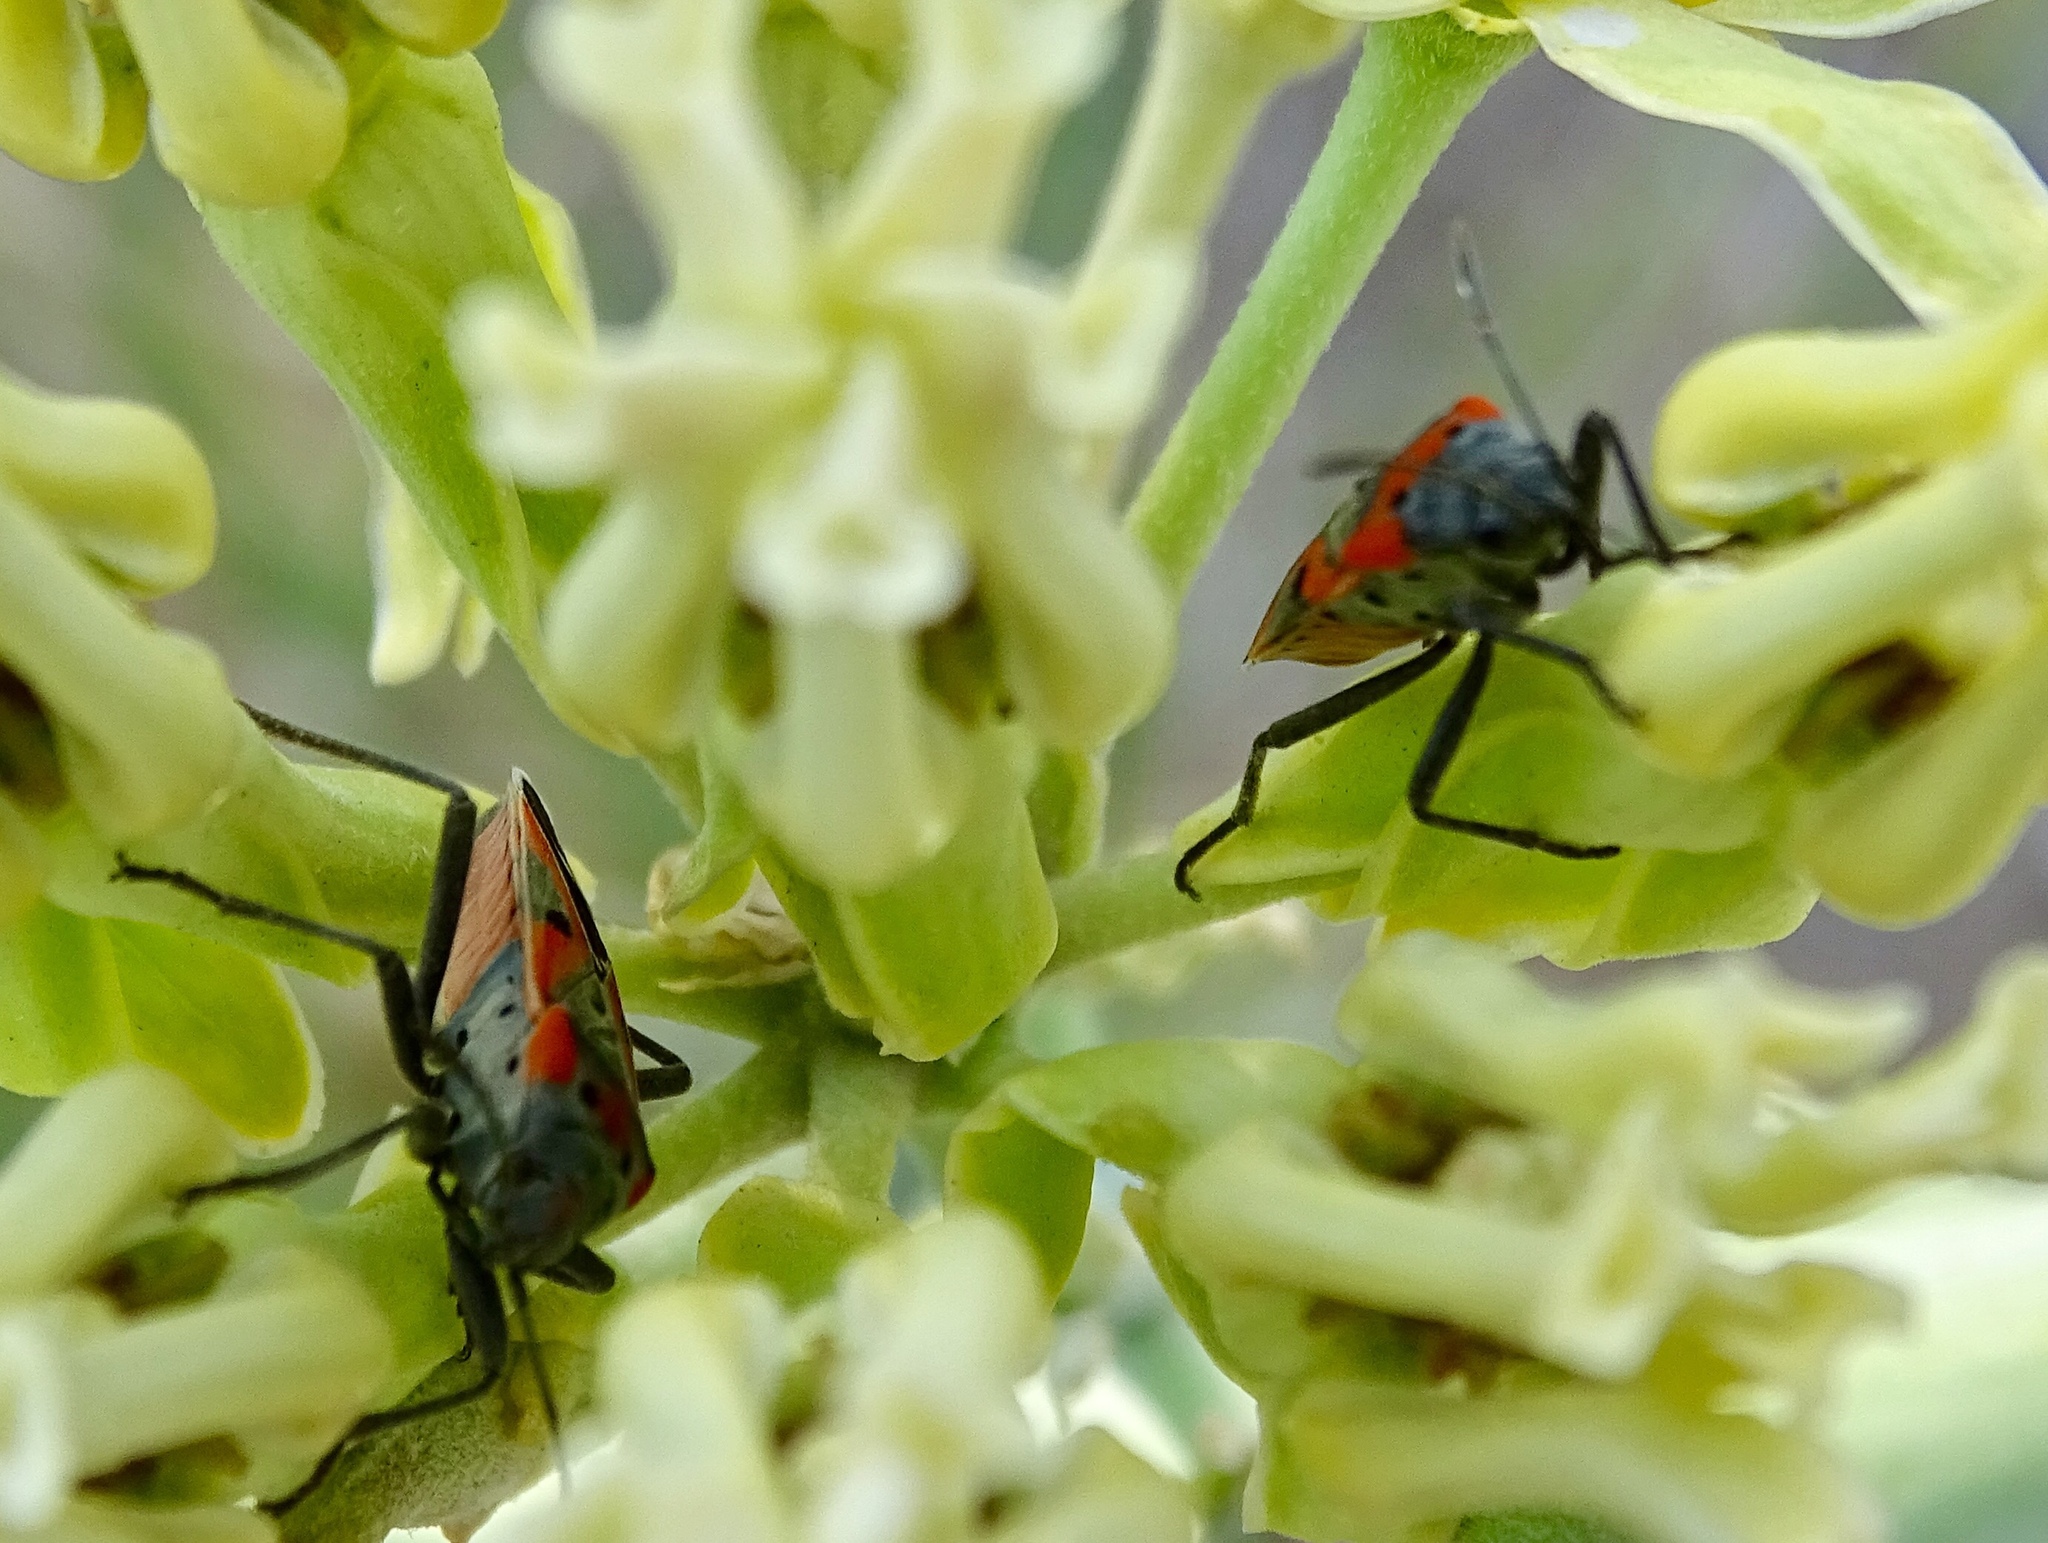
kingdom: Animalia
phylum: Arthropoda
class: Insecta
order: Hemiptera
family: Lygaeidae
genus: Lygaeus
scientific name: Lygaeus kalmii
